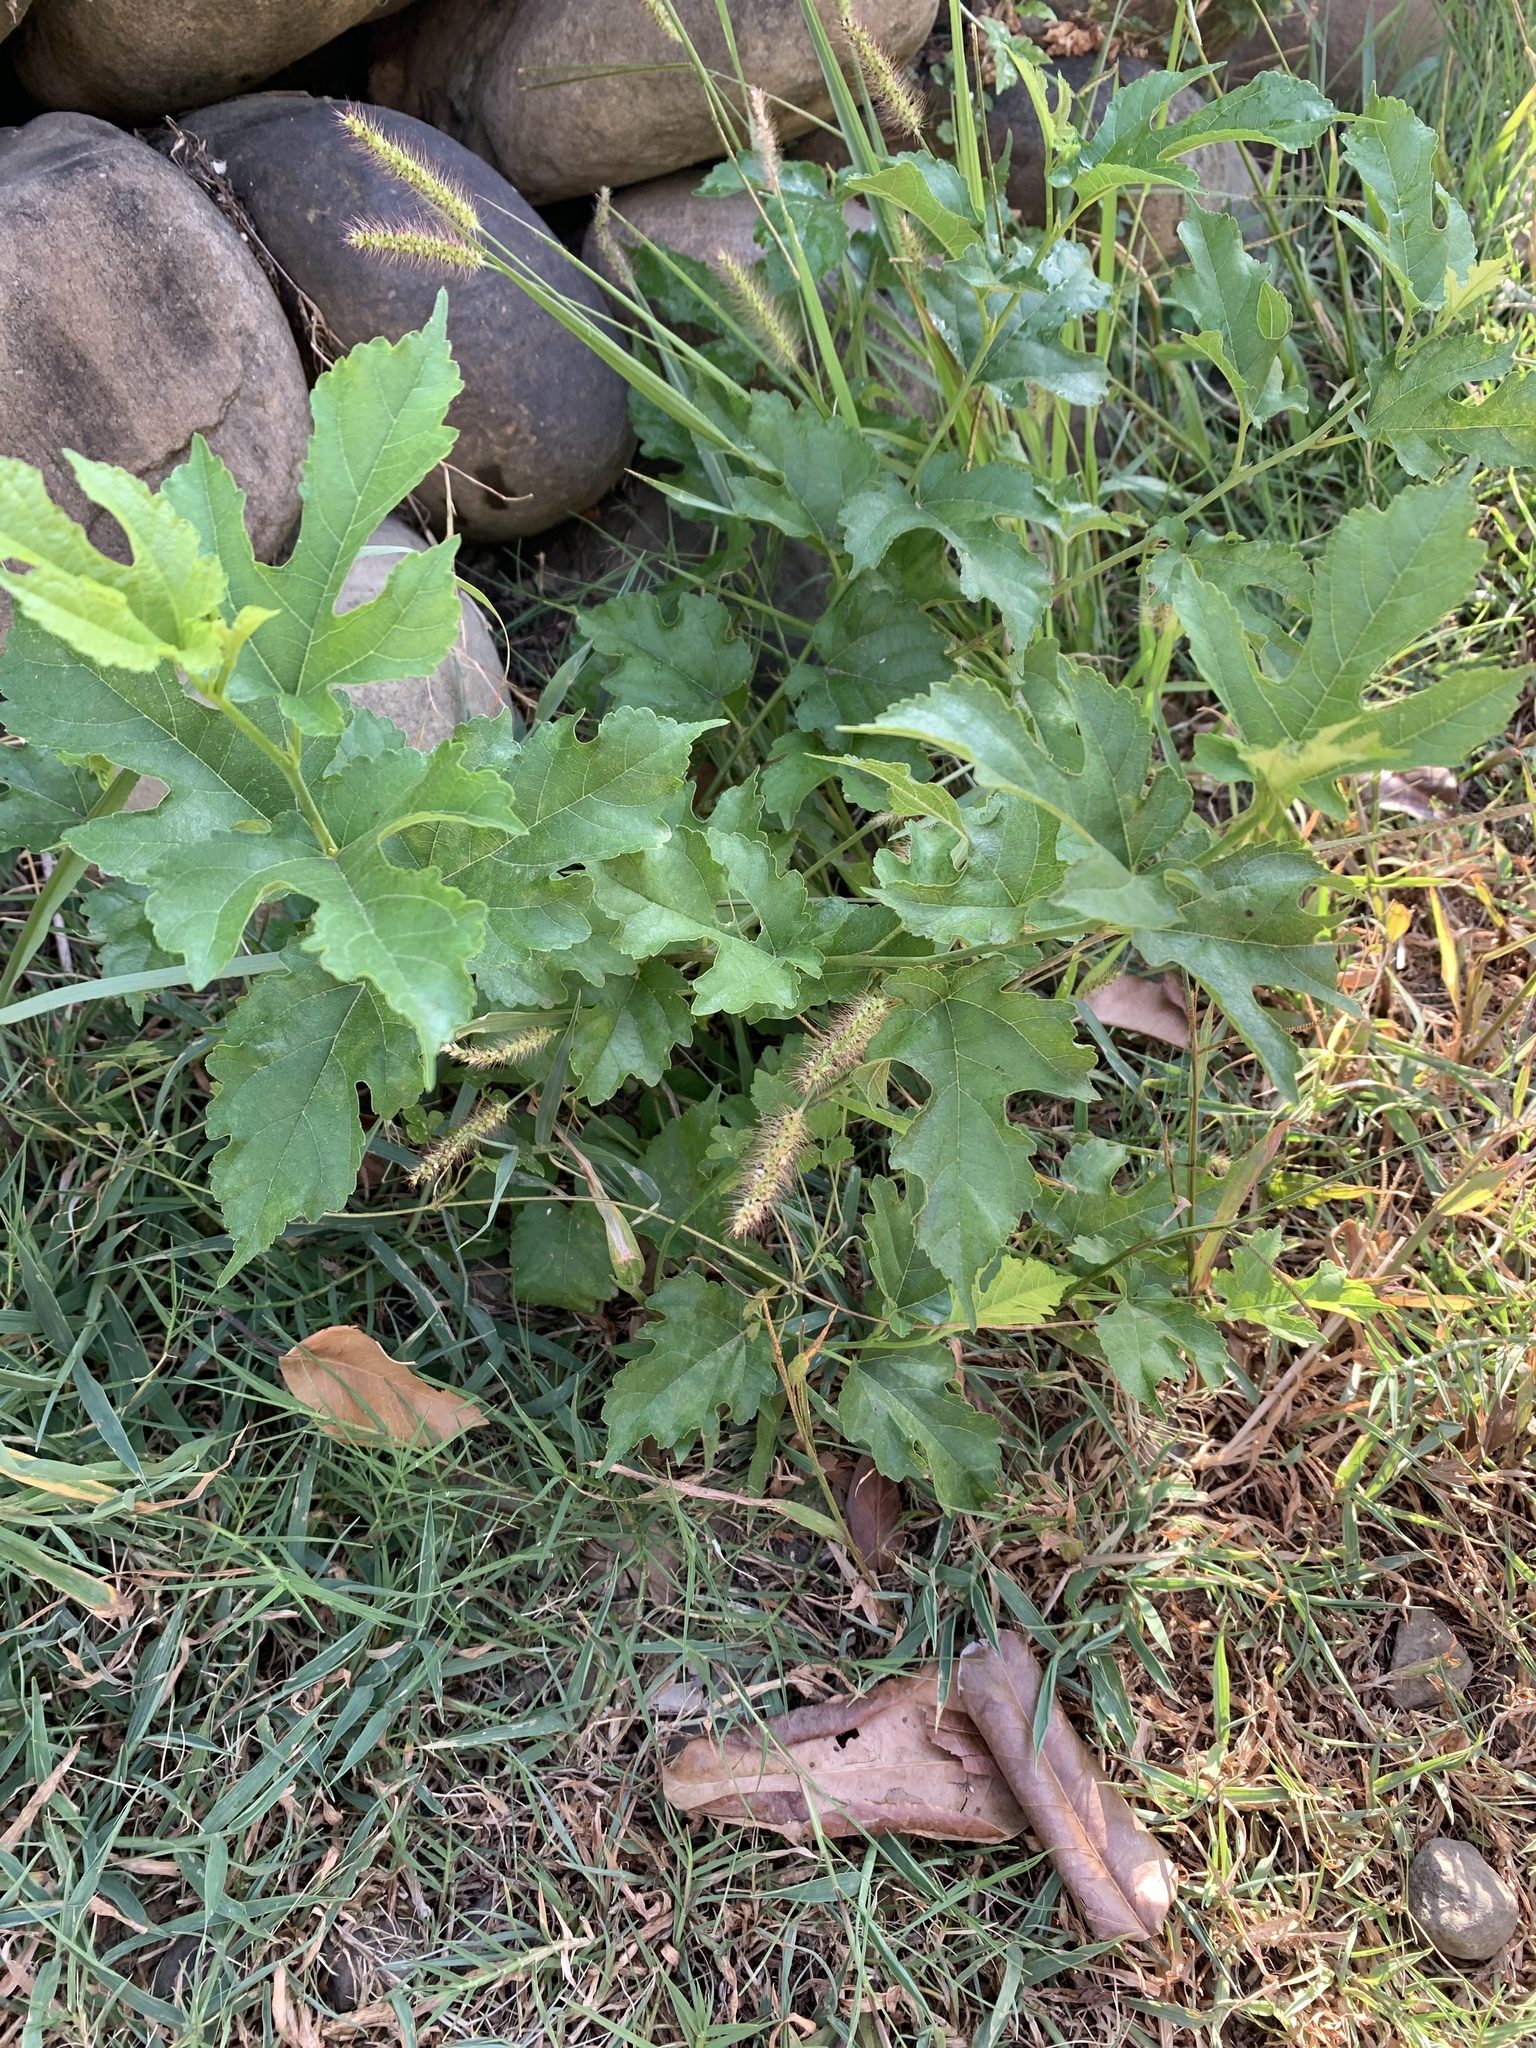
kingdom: Plantae
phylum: Tracheophyta
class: Magnoliopsida
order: Rosales
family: Moraceae
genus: Morus
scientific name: Morus indica
